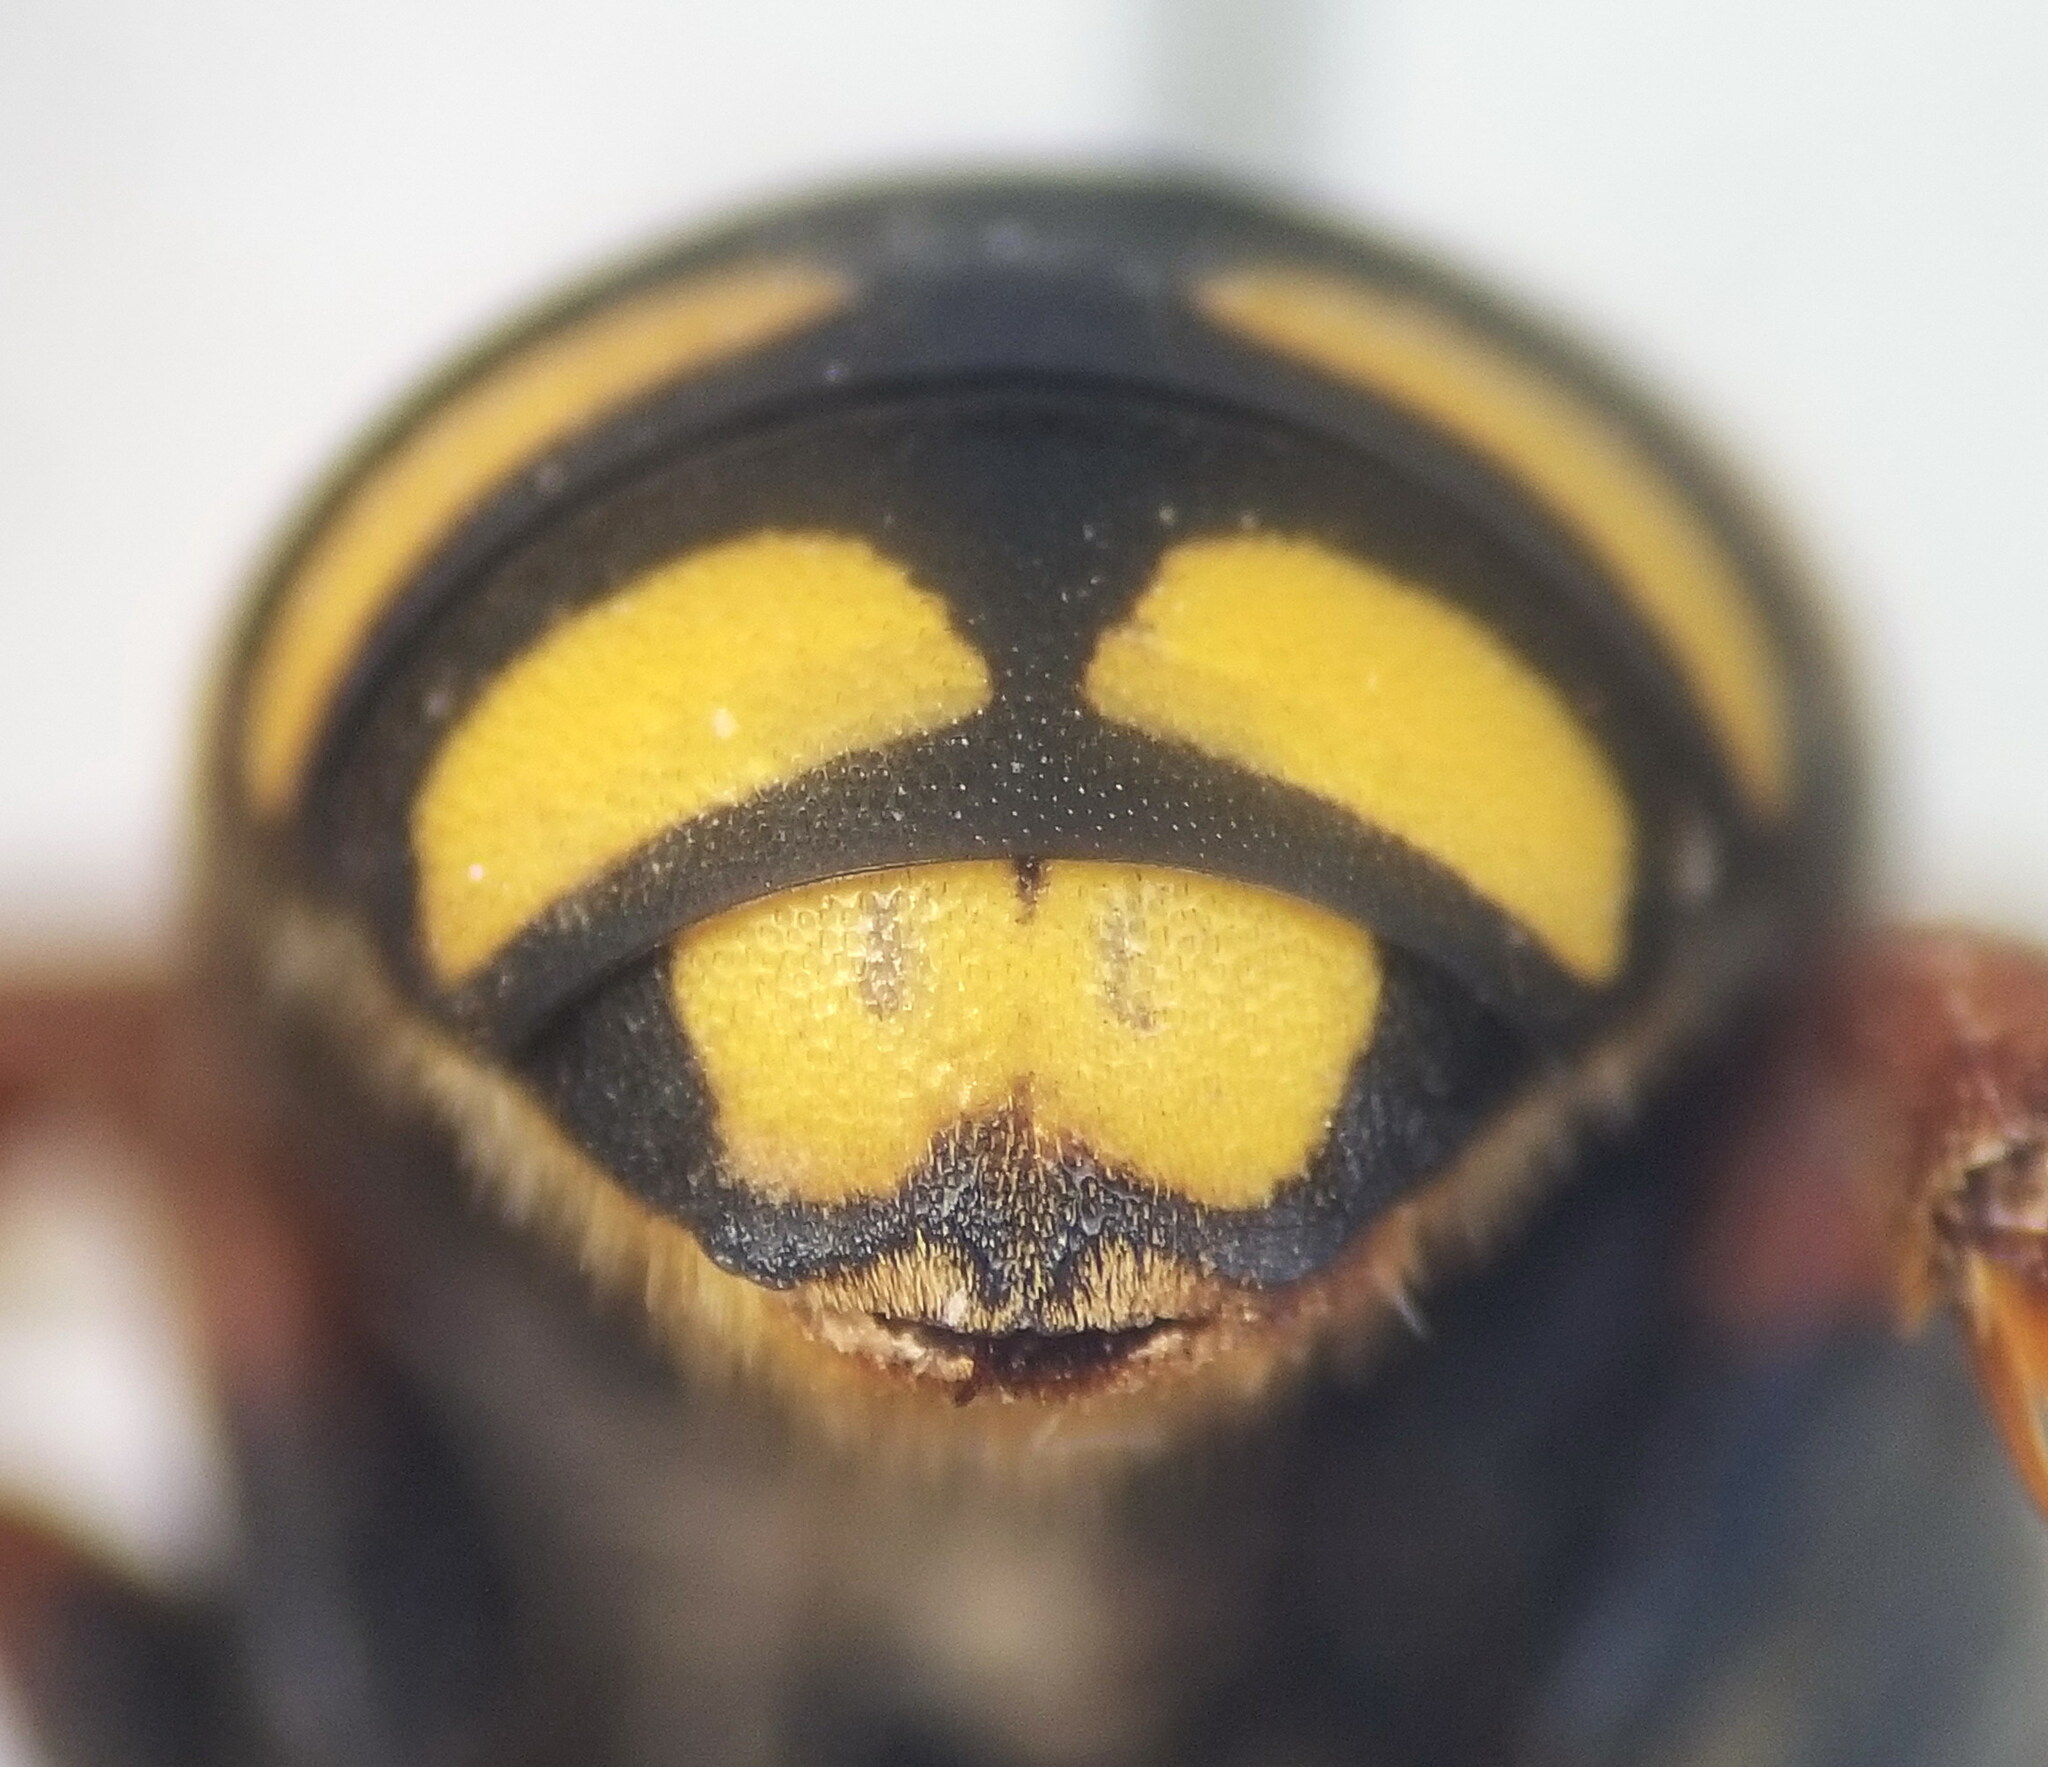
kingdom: Animalia
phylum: Arthropoda
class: Insecta
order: Hymenoptera
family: Megachilidae
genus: Rhodanthidium
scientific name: Rhodanthidium septemdentatum
